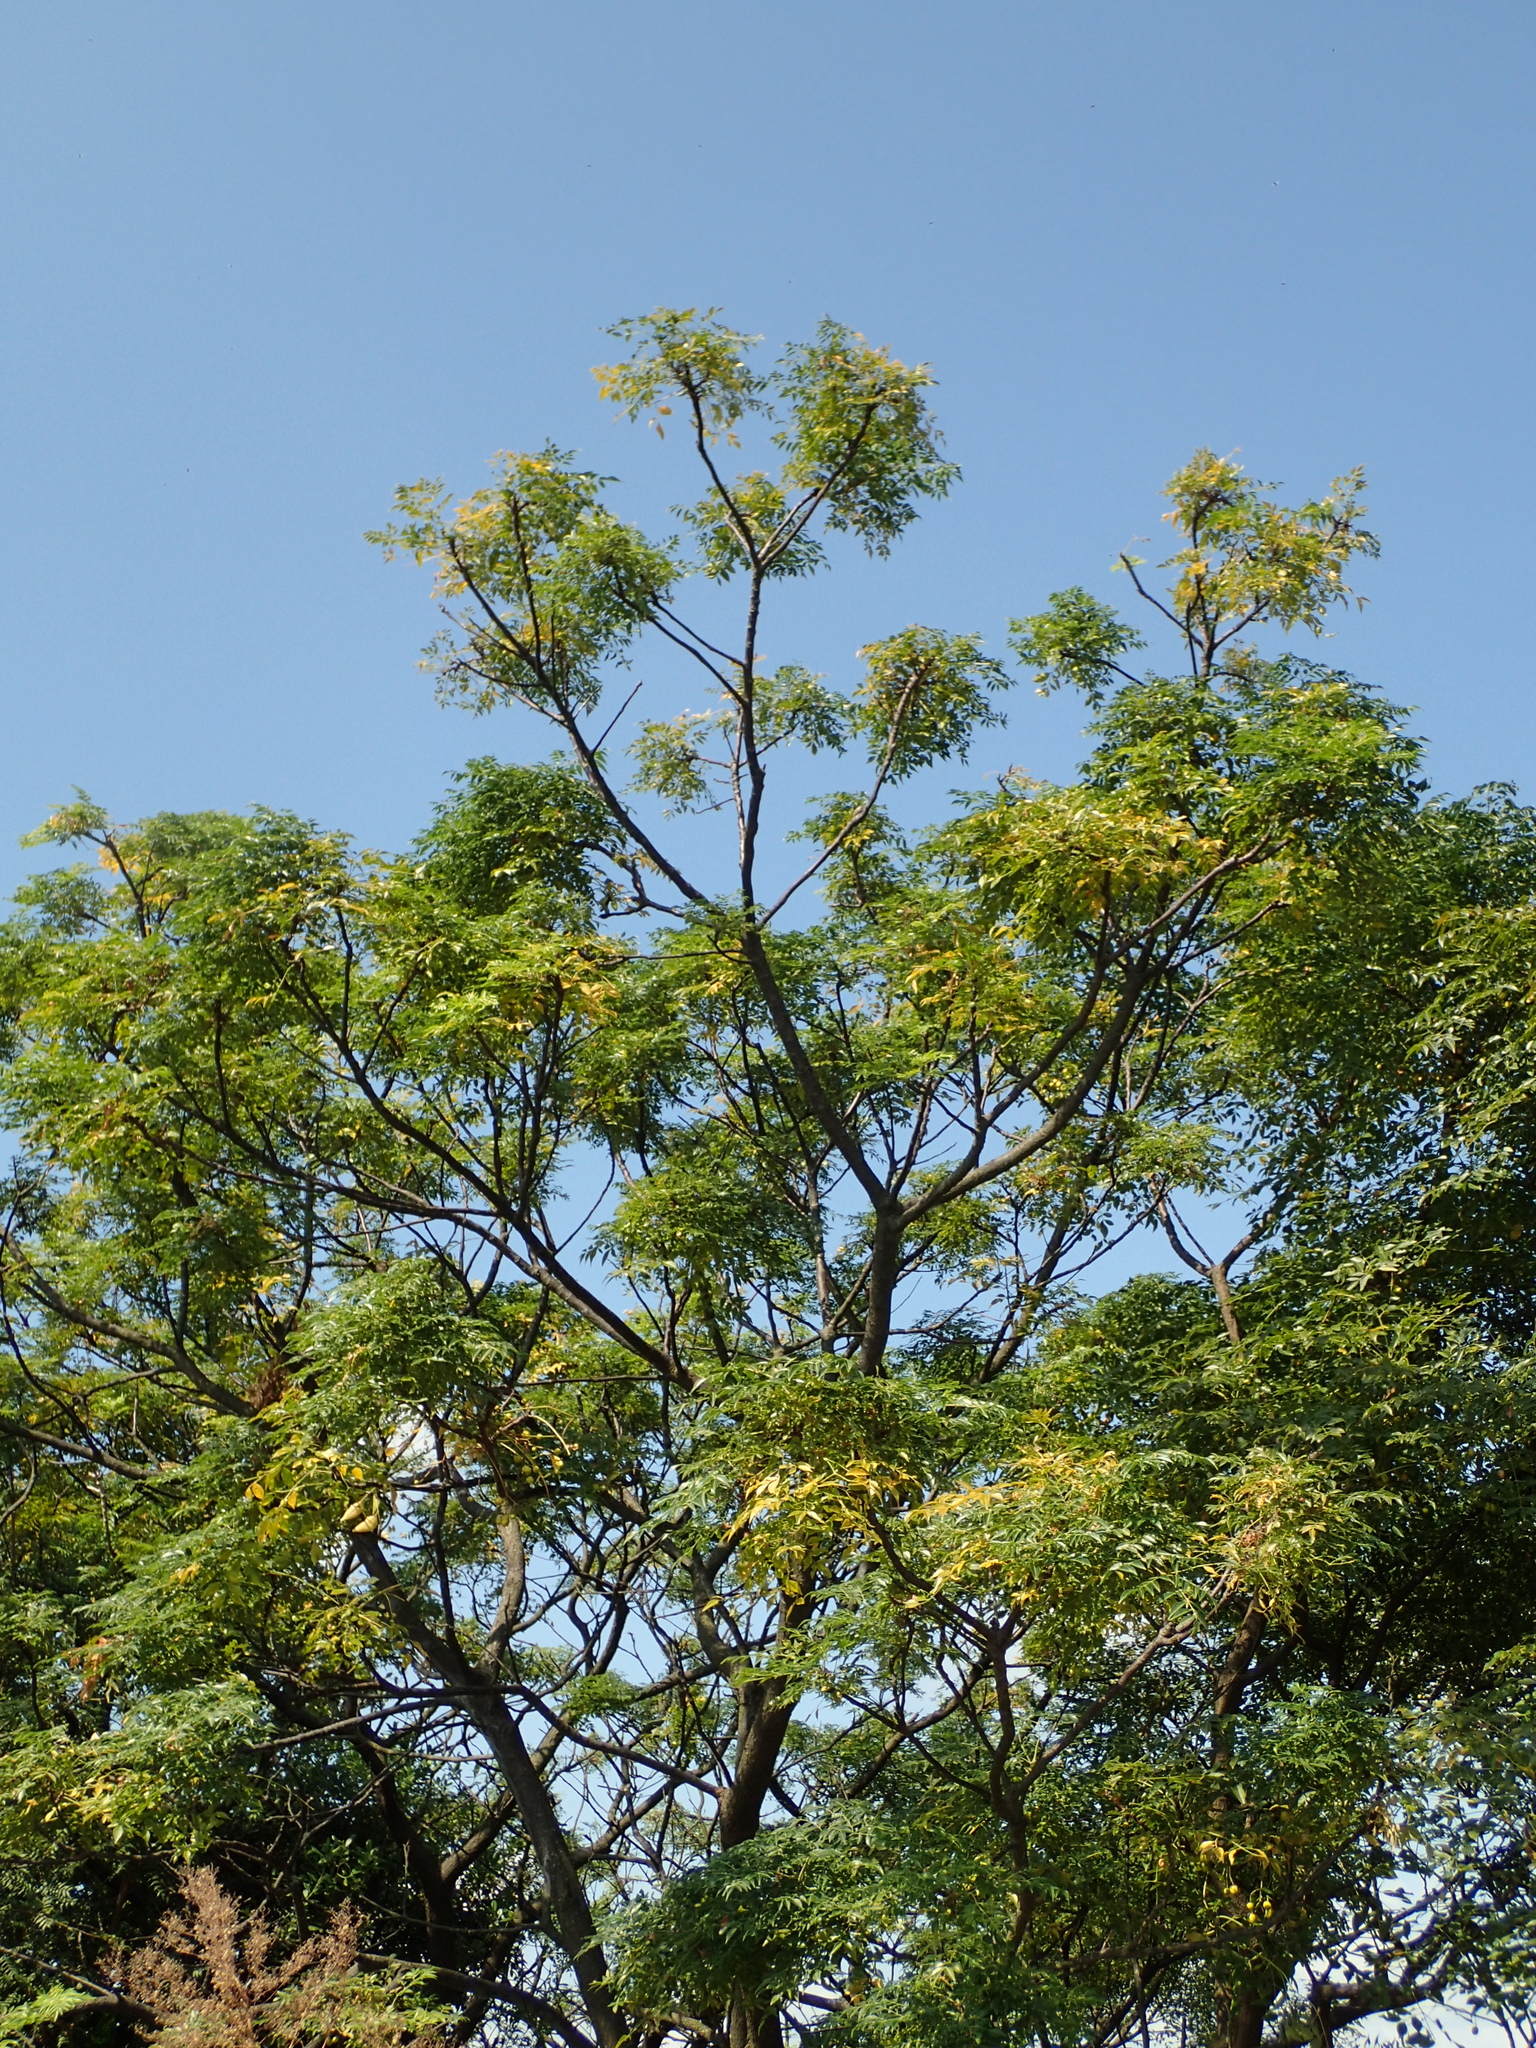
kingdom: Plantae
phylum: Tracheophyta
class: Magnoliopsida
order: Sapindales
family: Meliaceae
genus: Melia
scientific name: Melia azedarach
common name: Chinaberrytree
